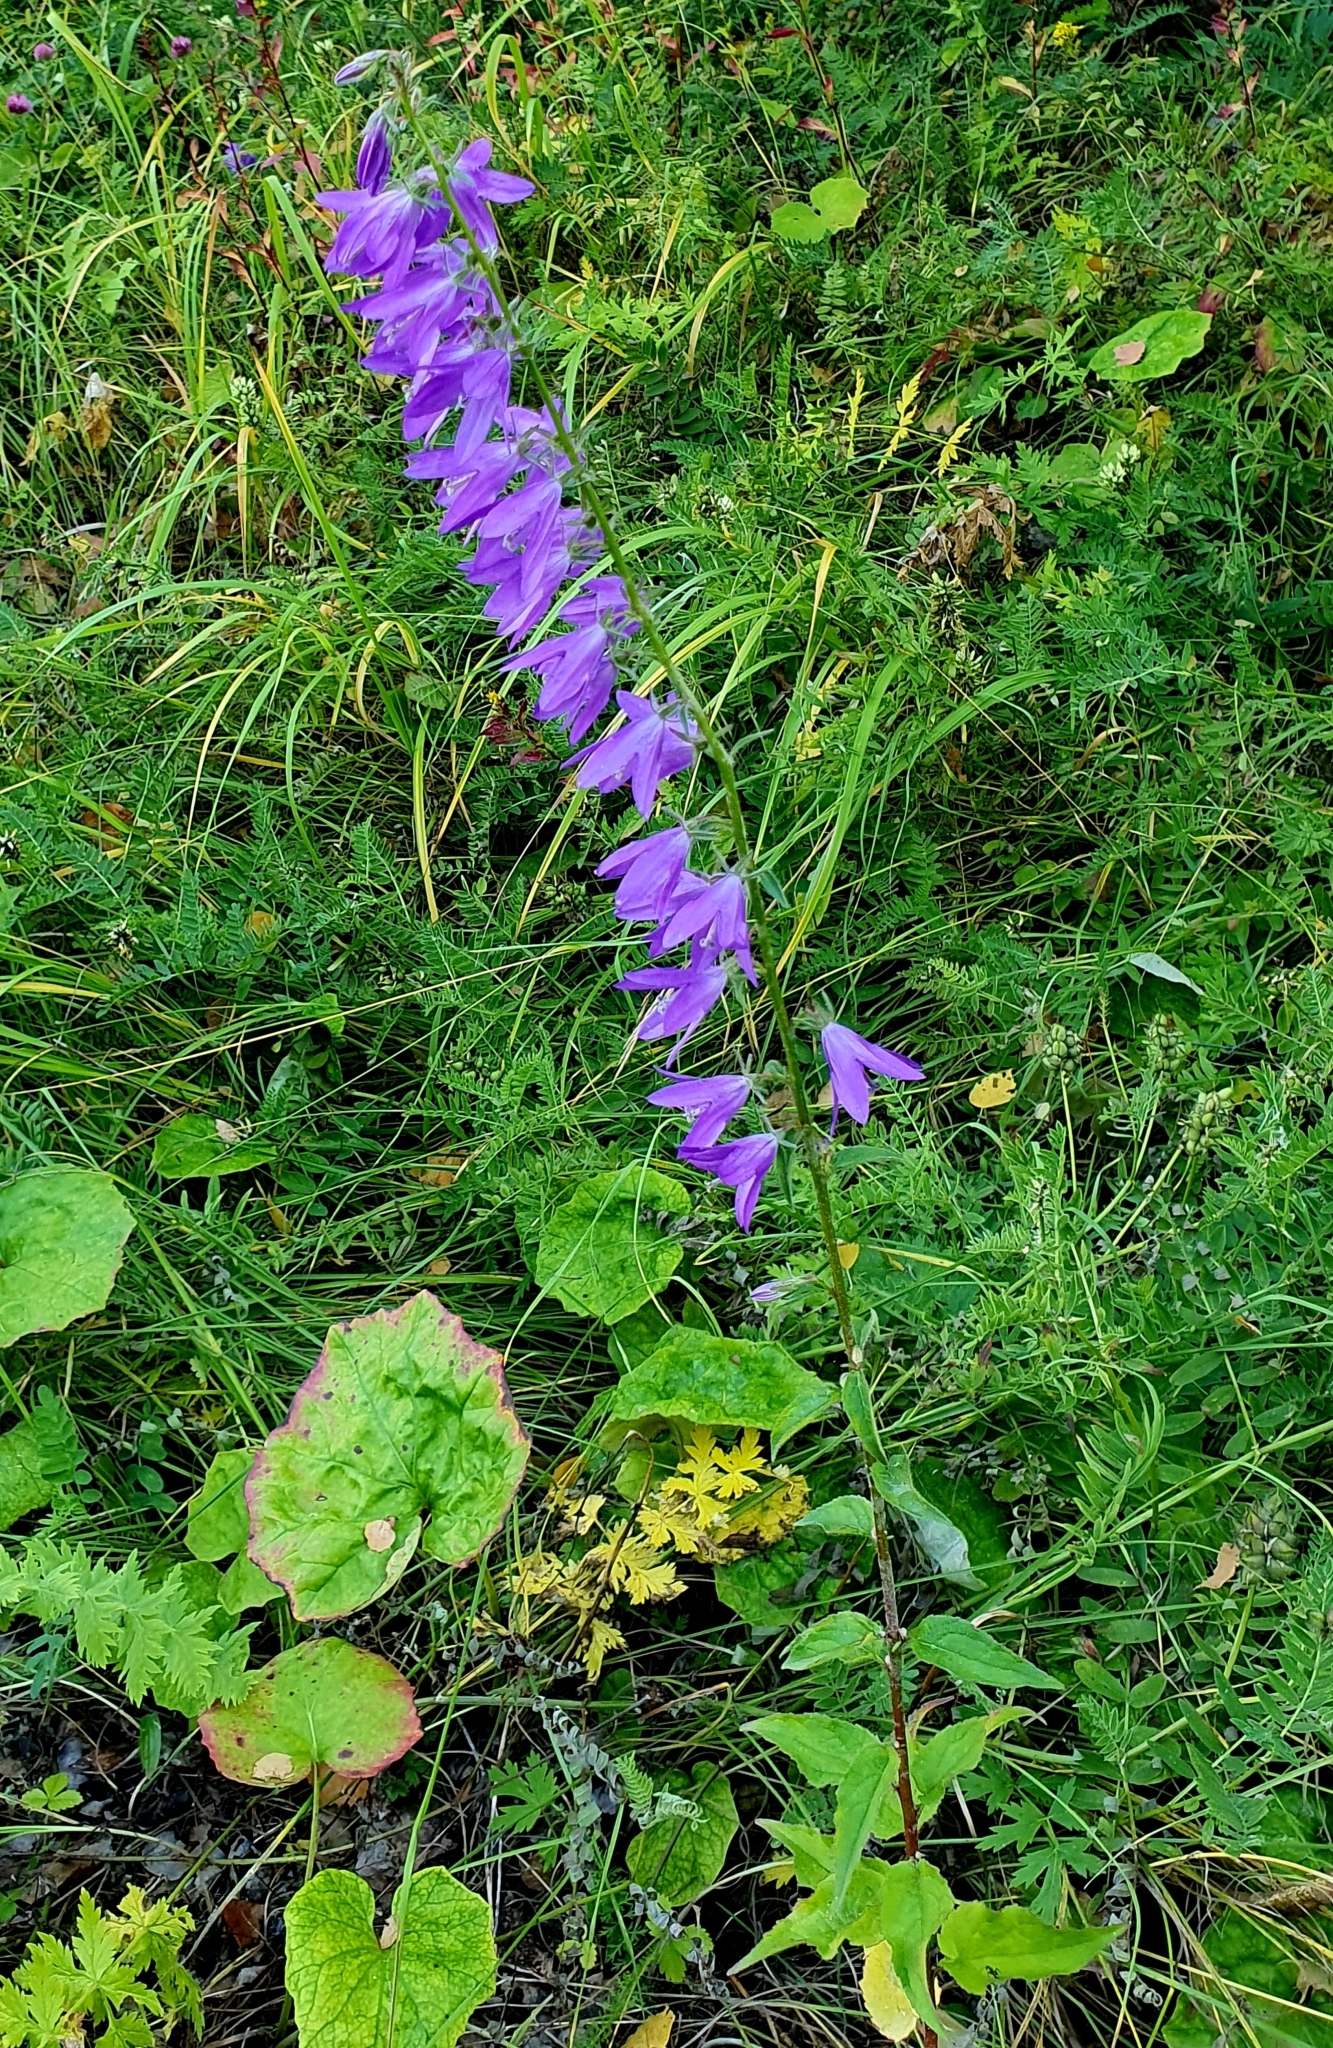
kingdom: Plantae
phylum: Tracheophyta
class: Magnoliopsida
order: Asterales
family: Campanulaceae
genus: Campanula
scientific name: Campanula rapunculoides
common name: Creeping bellflower
